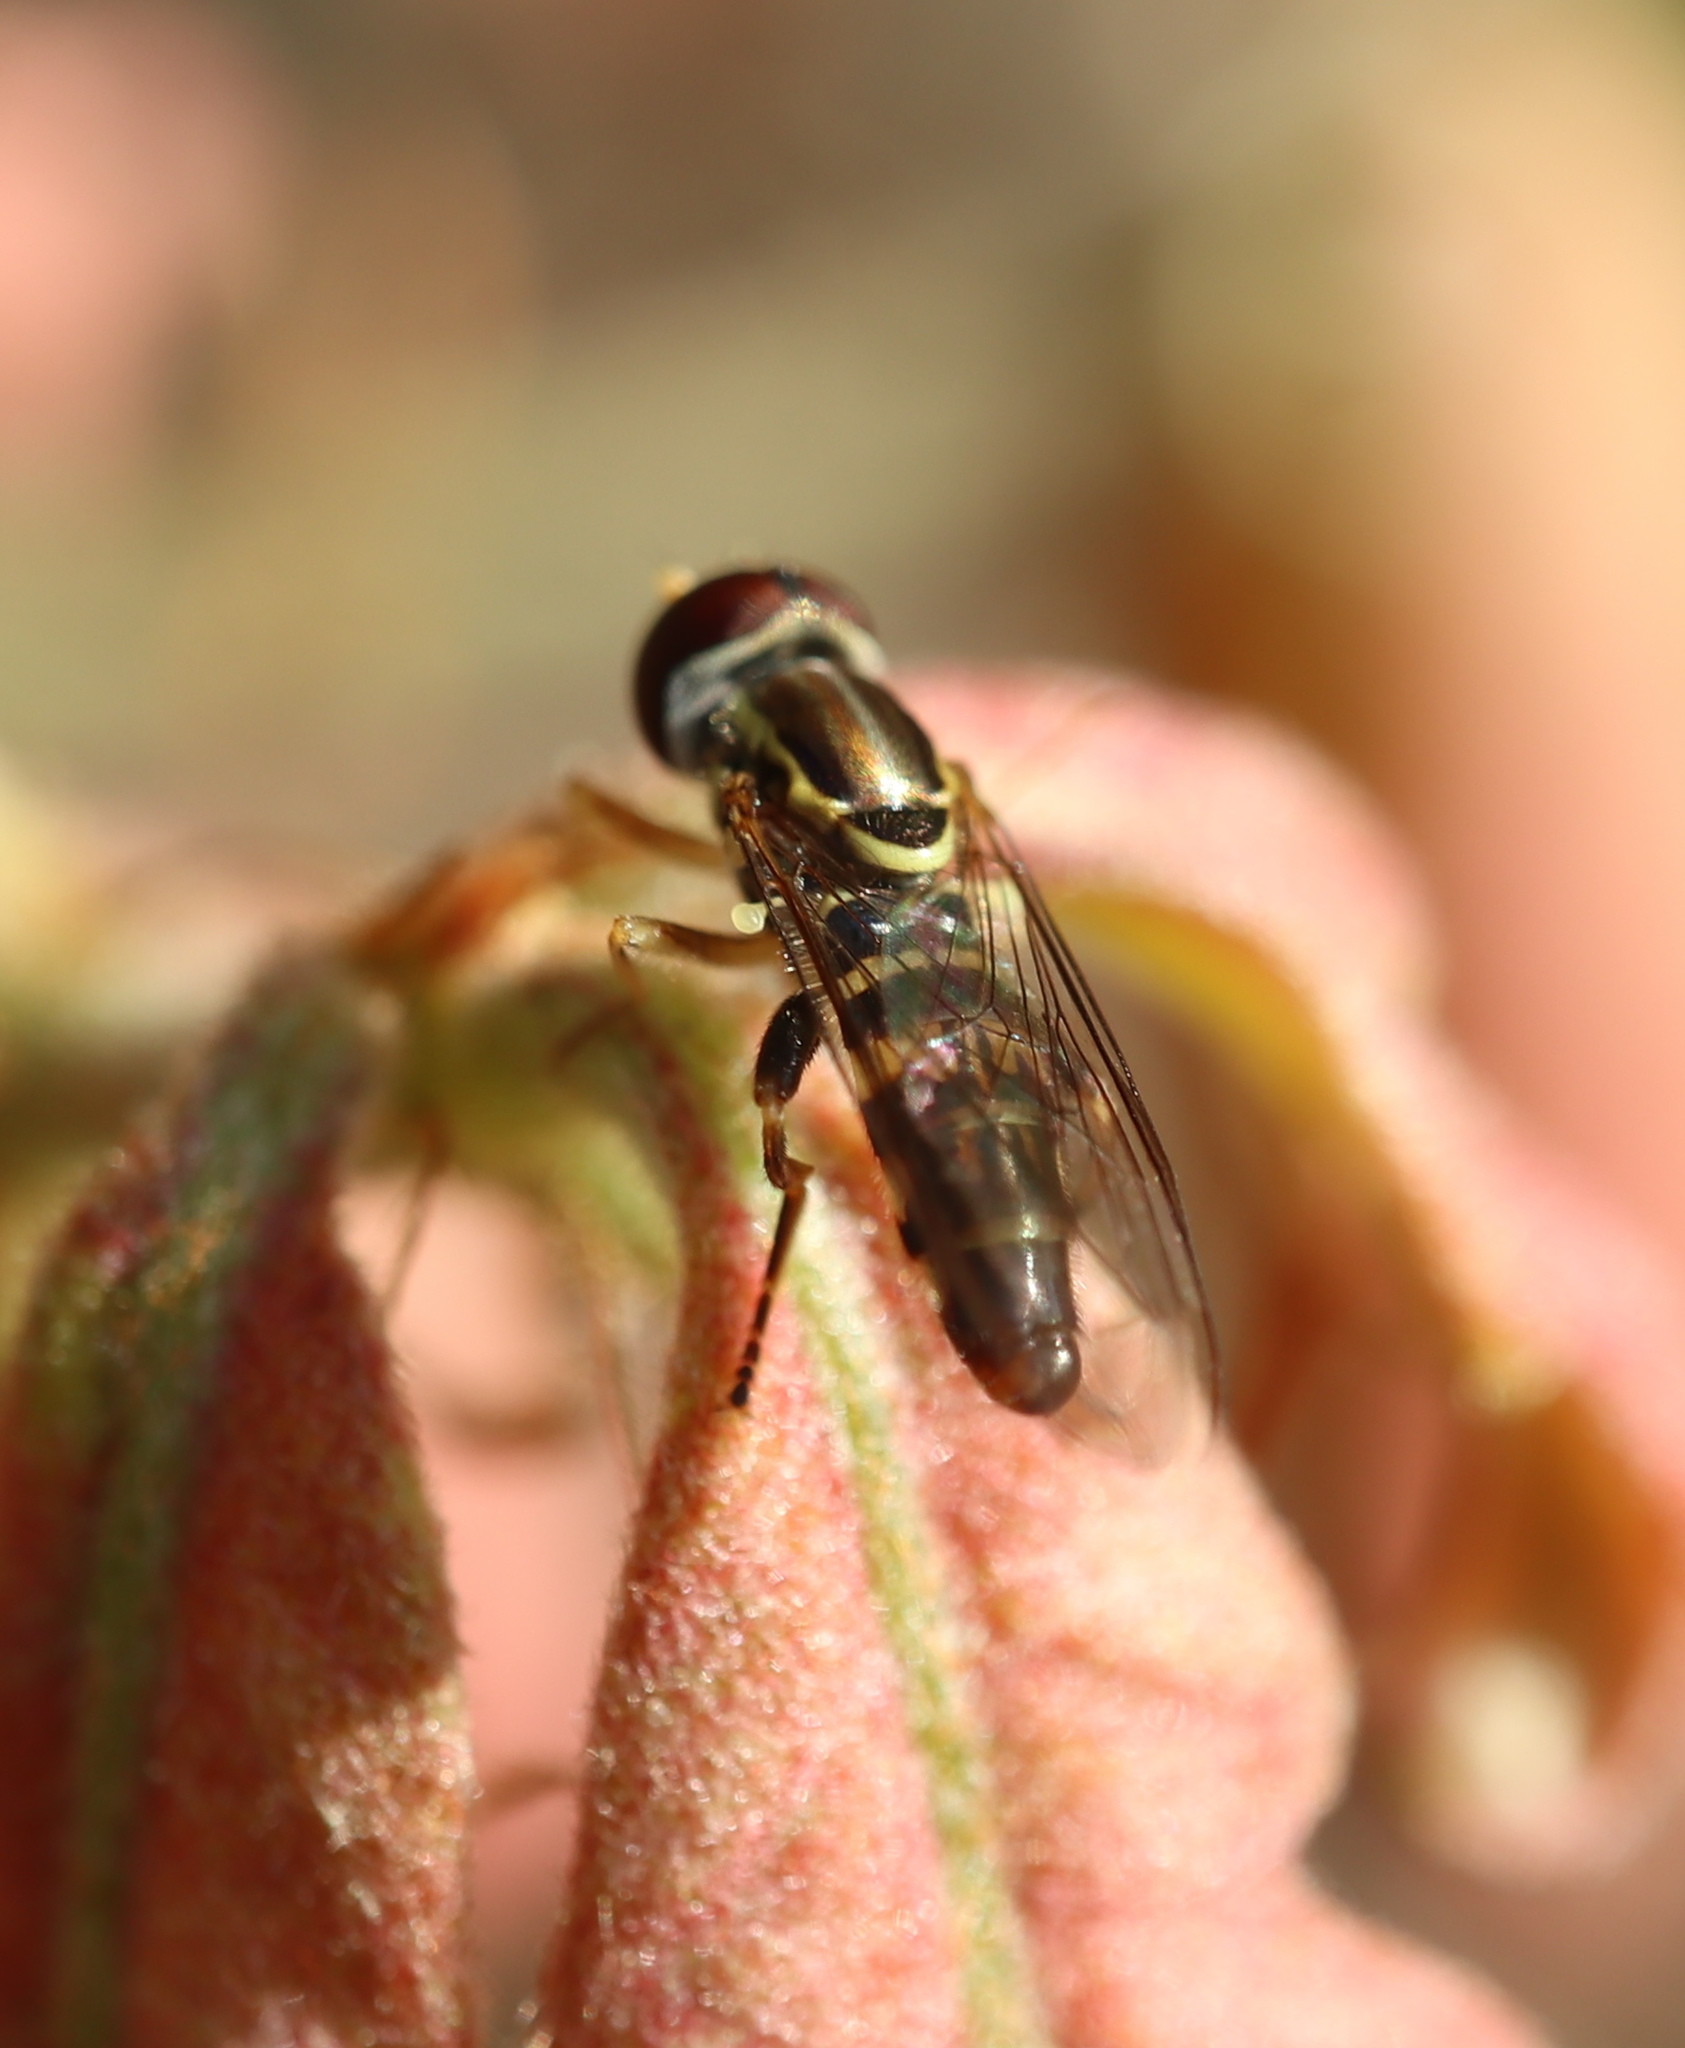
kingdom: Animalia
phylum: Arthropoda
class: Insecta
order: Diptera
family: Syrphidae
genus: Toxomerus
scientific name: Toxomerus geminatus
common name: Eastern calligrapher
